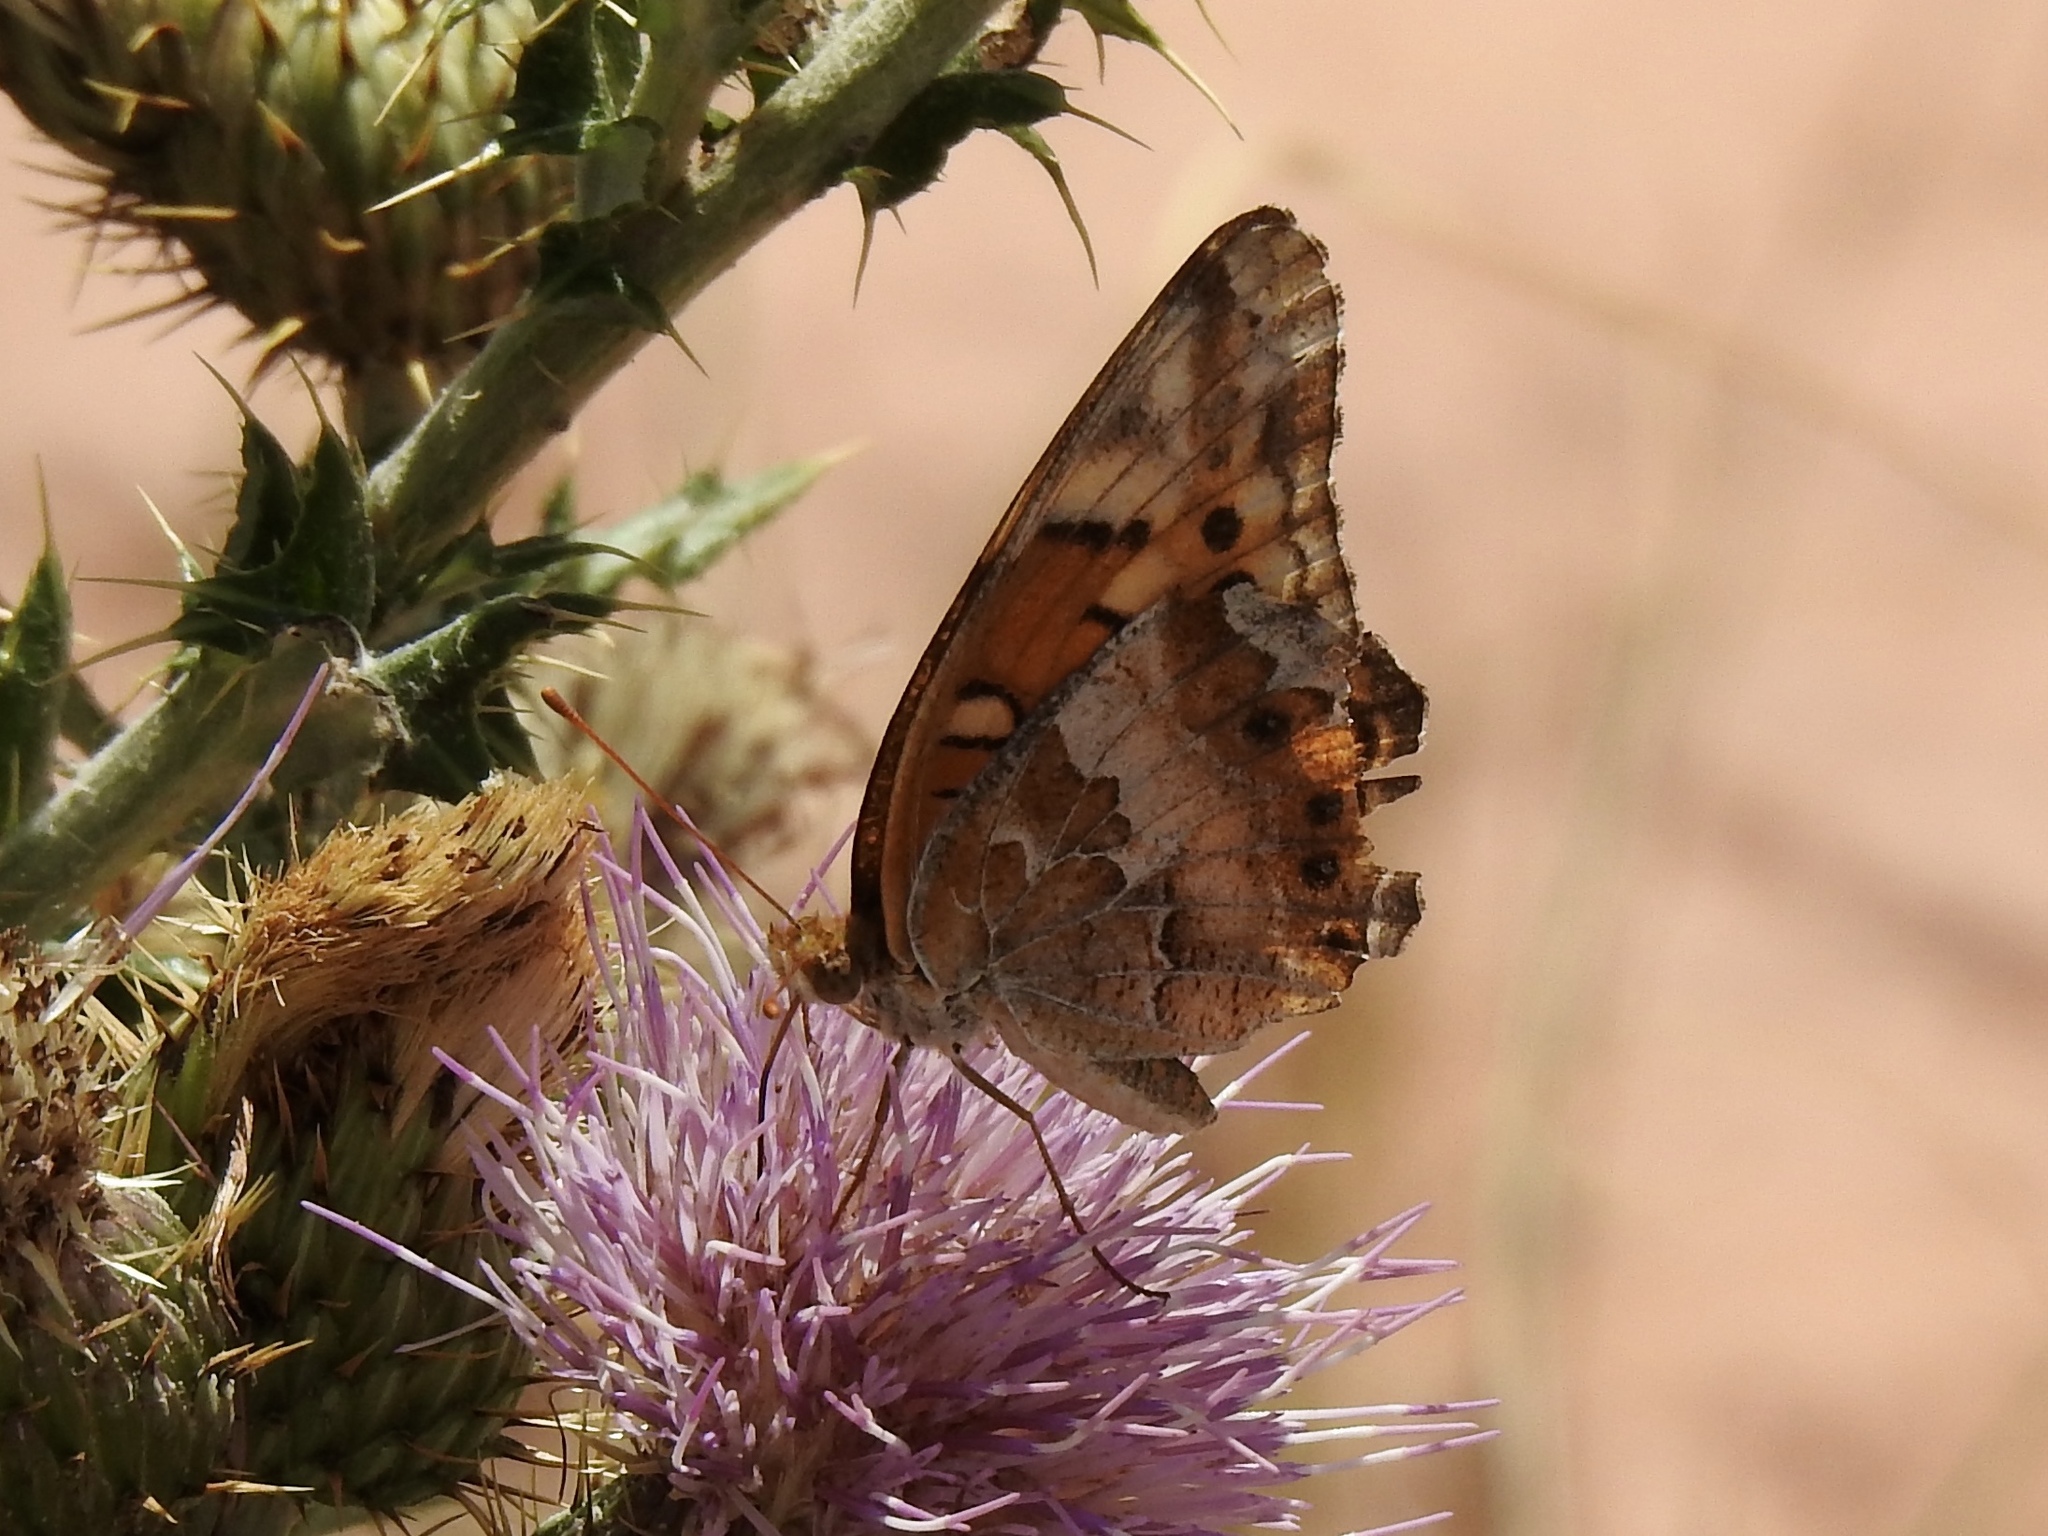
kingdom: Animalia
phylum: Arthropoda
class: Insecta
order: Lepidoptera
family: Nymphalidae
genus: Euptoieta
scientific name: Euptoieta claudia
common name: Variegated fritillary
